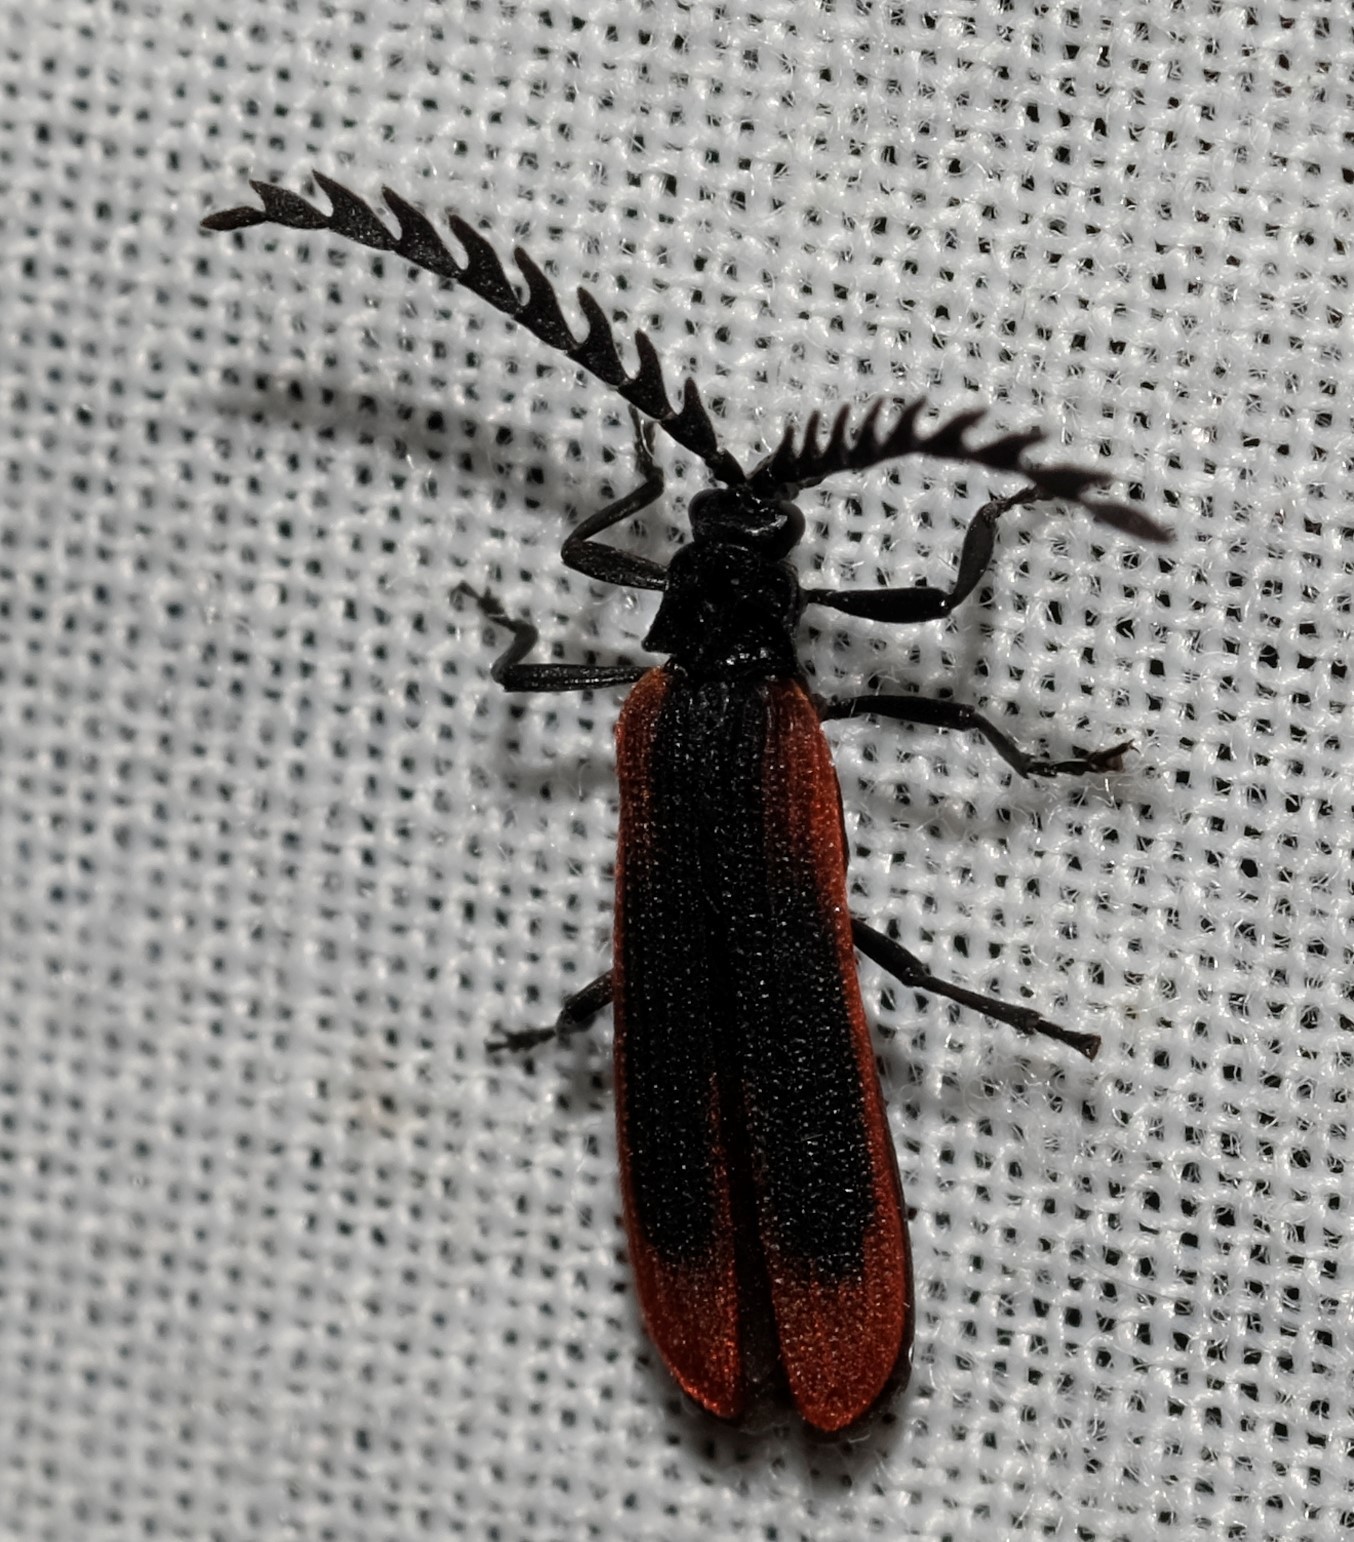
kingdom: Animalia
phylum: Arthropoda
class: Insecta
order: Coleoptera
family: Lycidae
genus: Porrostoma
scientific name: Porrostoma rufipenne
